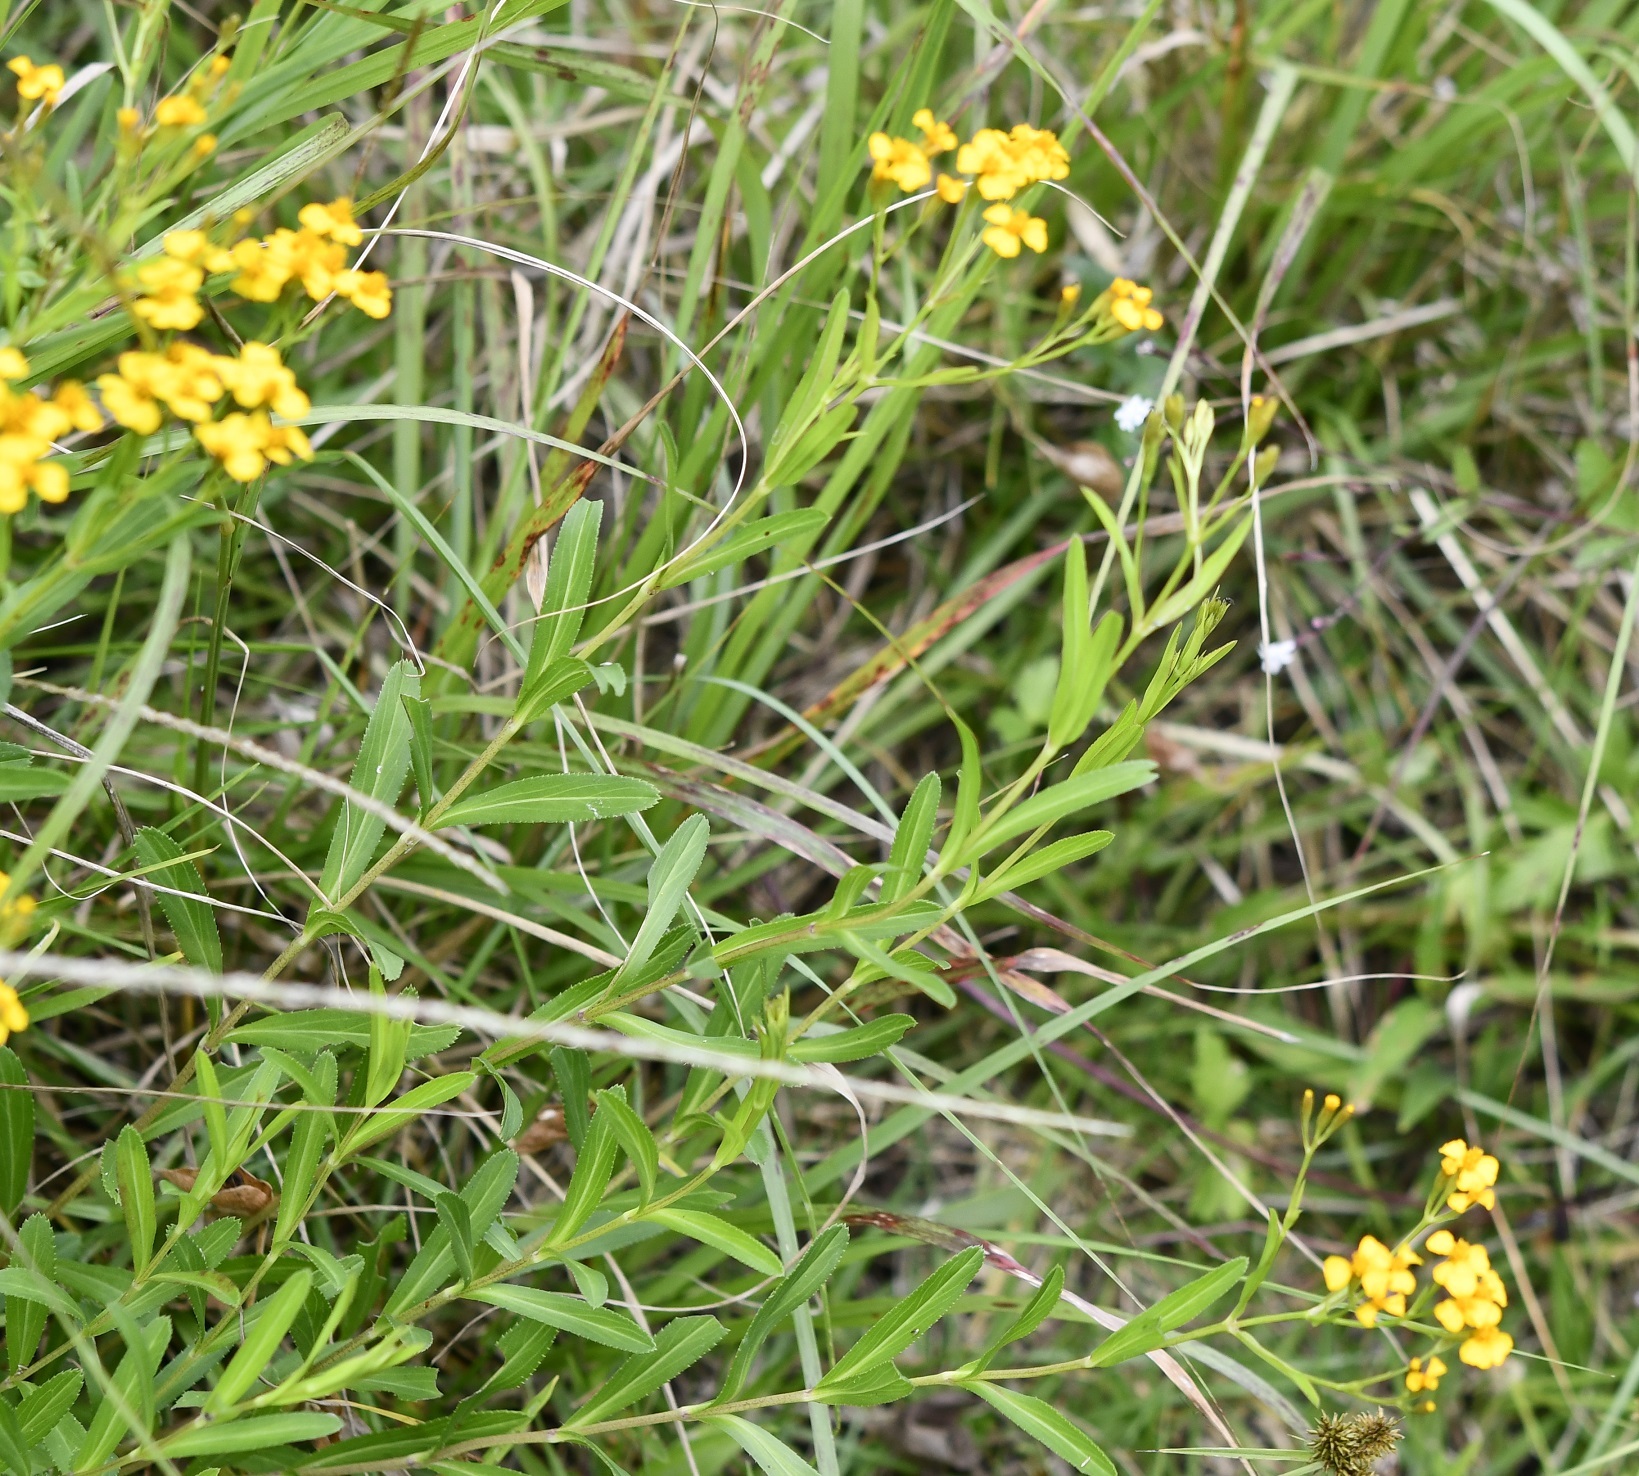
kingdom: Plantae
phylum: Tracheophyta
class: Magnoliopsida
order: Asterales
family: Asteraceae
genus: Tagetes
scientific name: Tagetes lucida
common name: Sweetscented marigold
